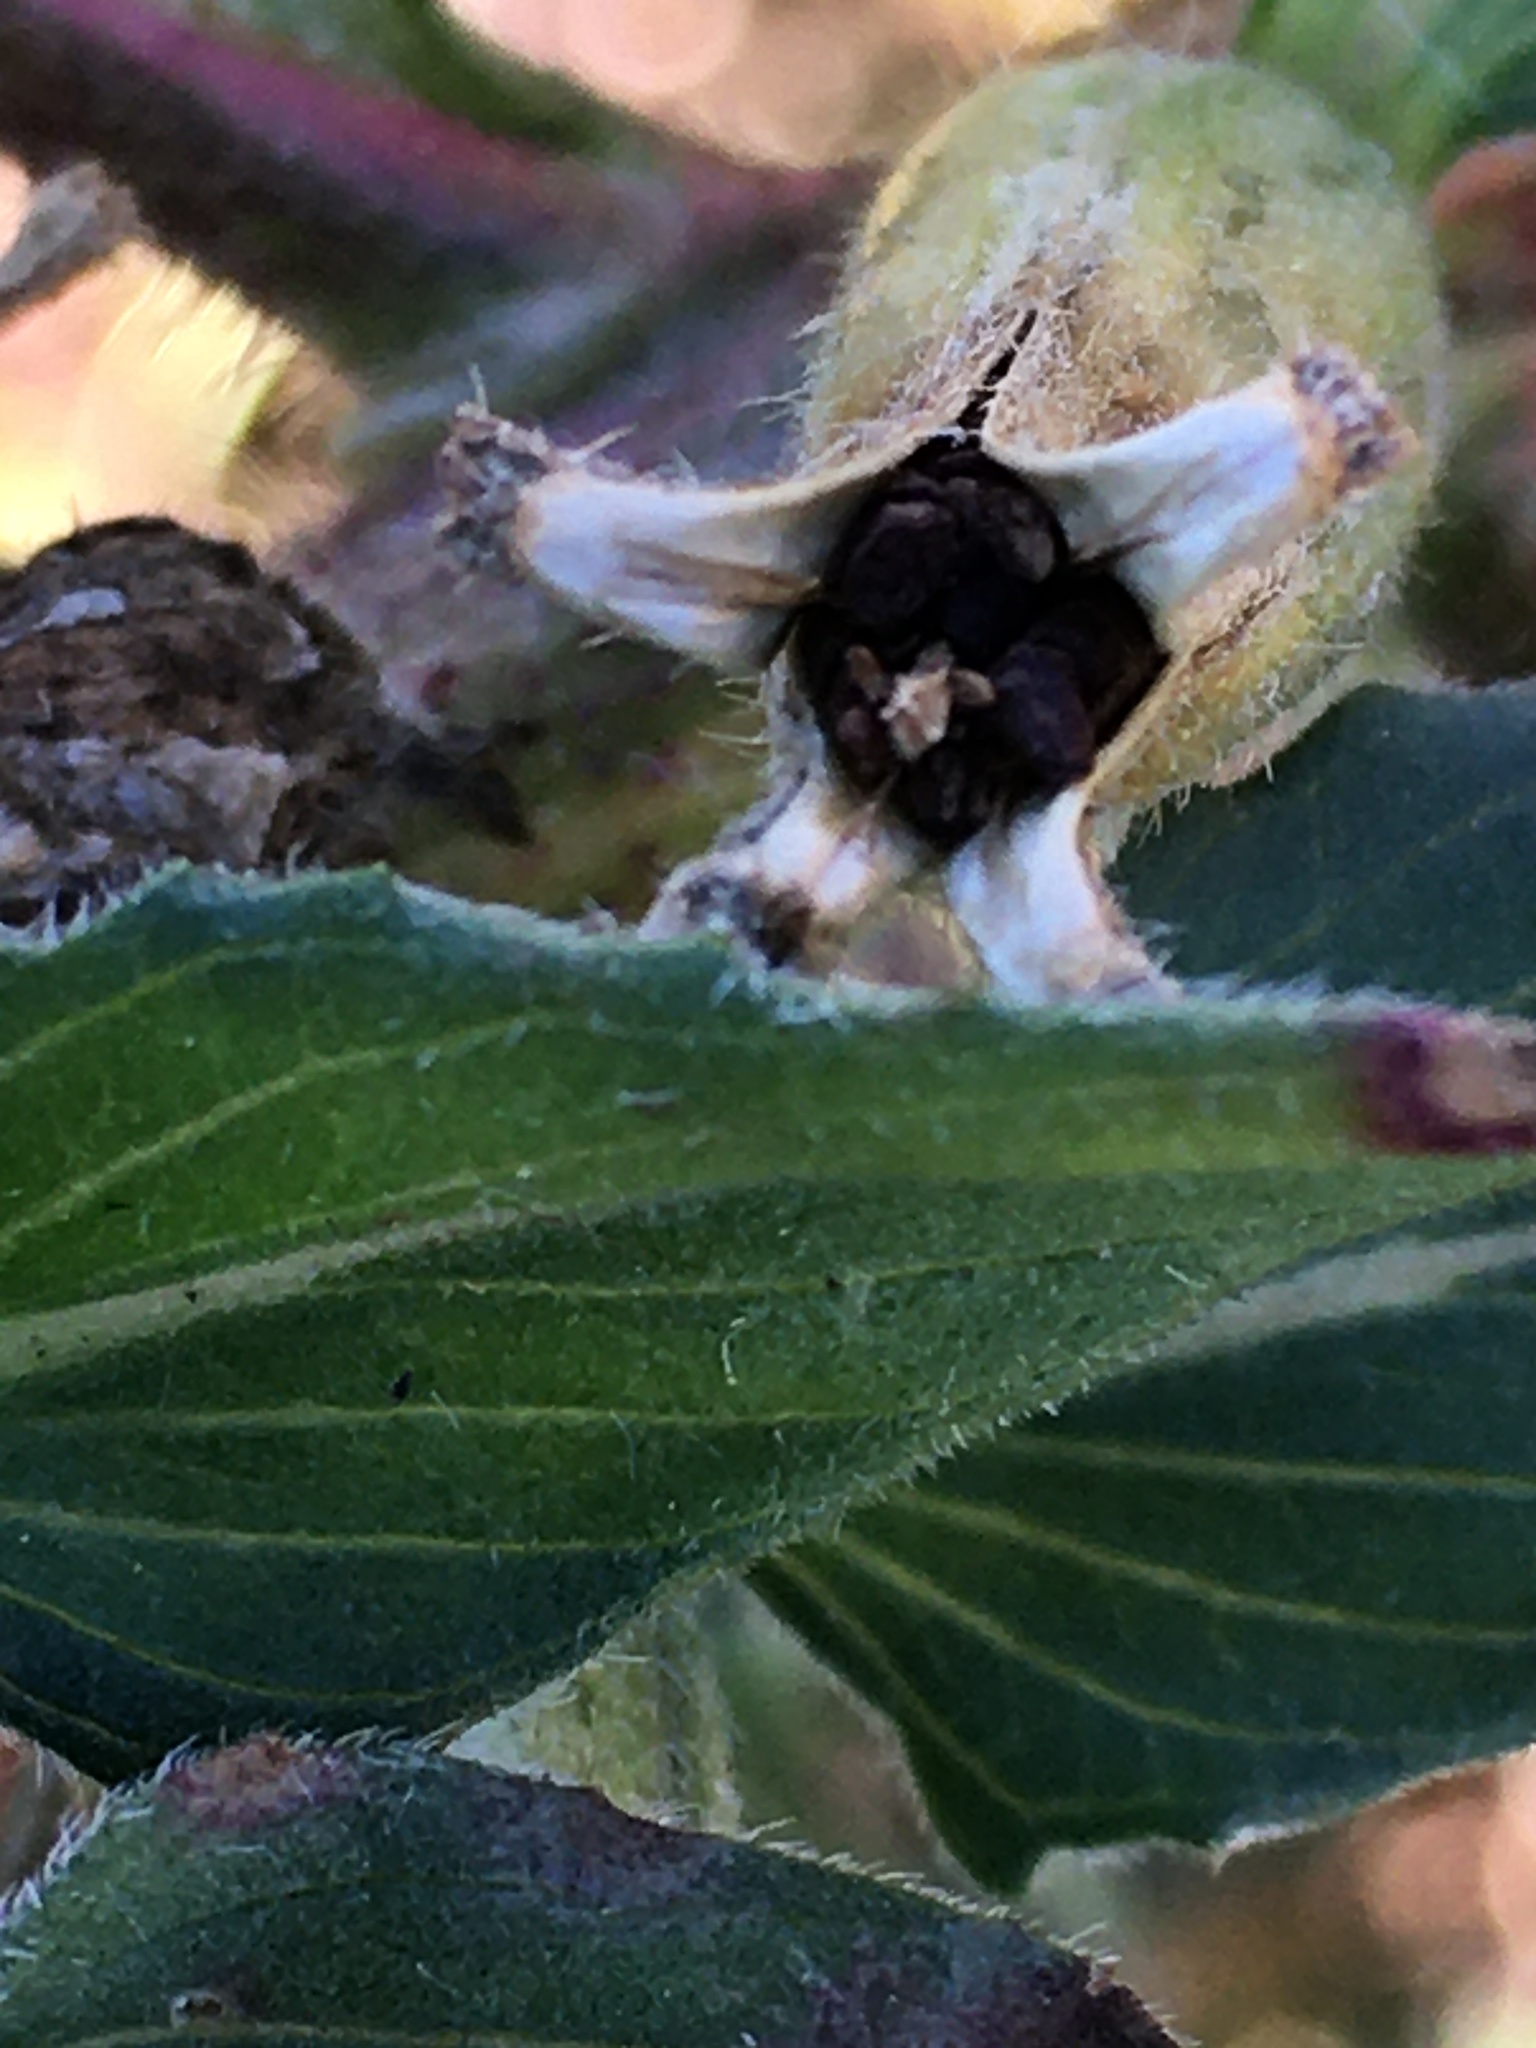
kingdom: Plantae
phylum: Tracheophyta
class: Magnoliopsida
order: Myrtales
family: Onagraceae
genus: Oenothera
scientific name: Oenothera biennis
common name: Common evening-primrose
